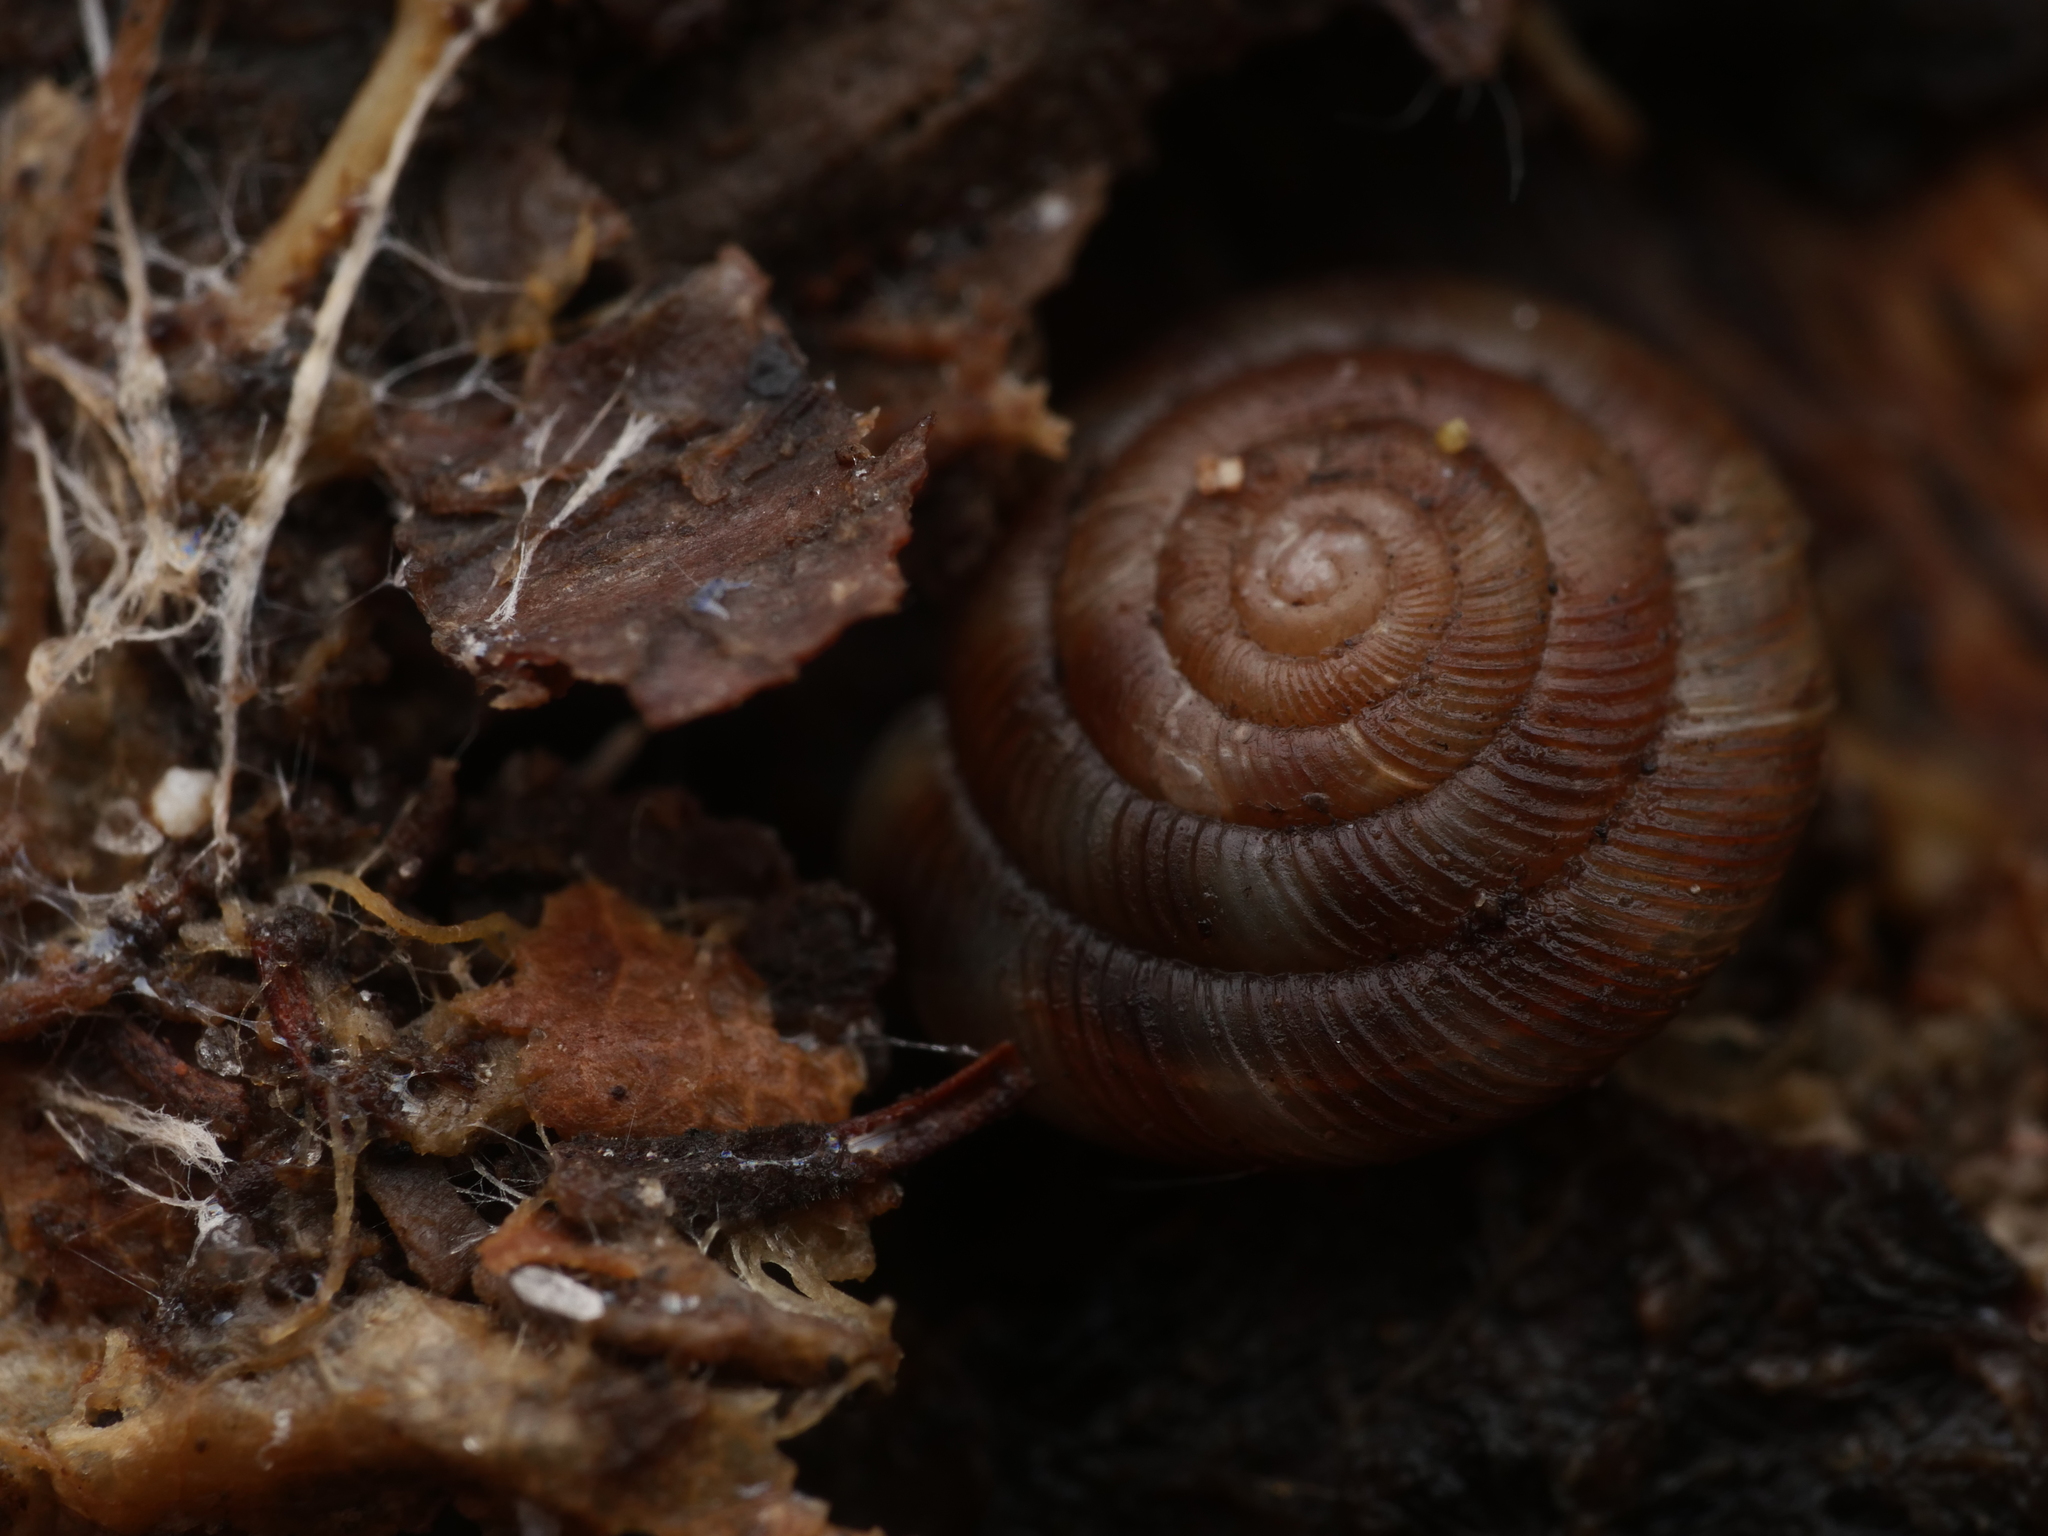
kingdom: Animalia
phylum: Mollusca
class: Gastropoda
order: Stylommatophora
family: Discidae
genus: Discus
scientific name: Discus rotundatus
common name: Rounded snail
